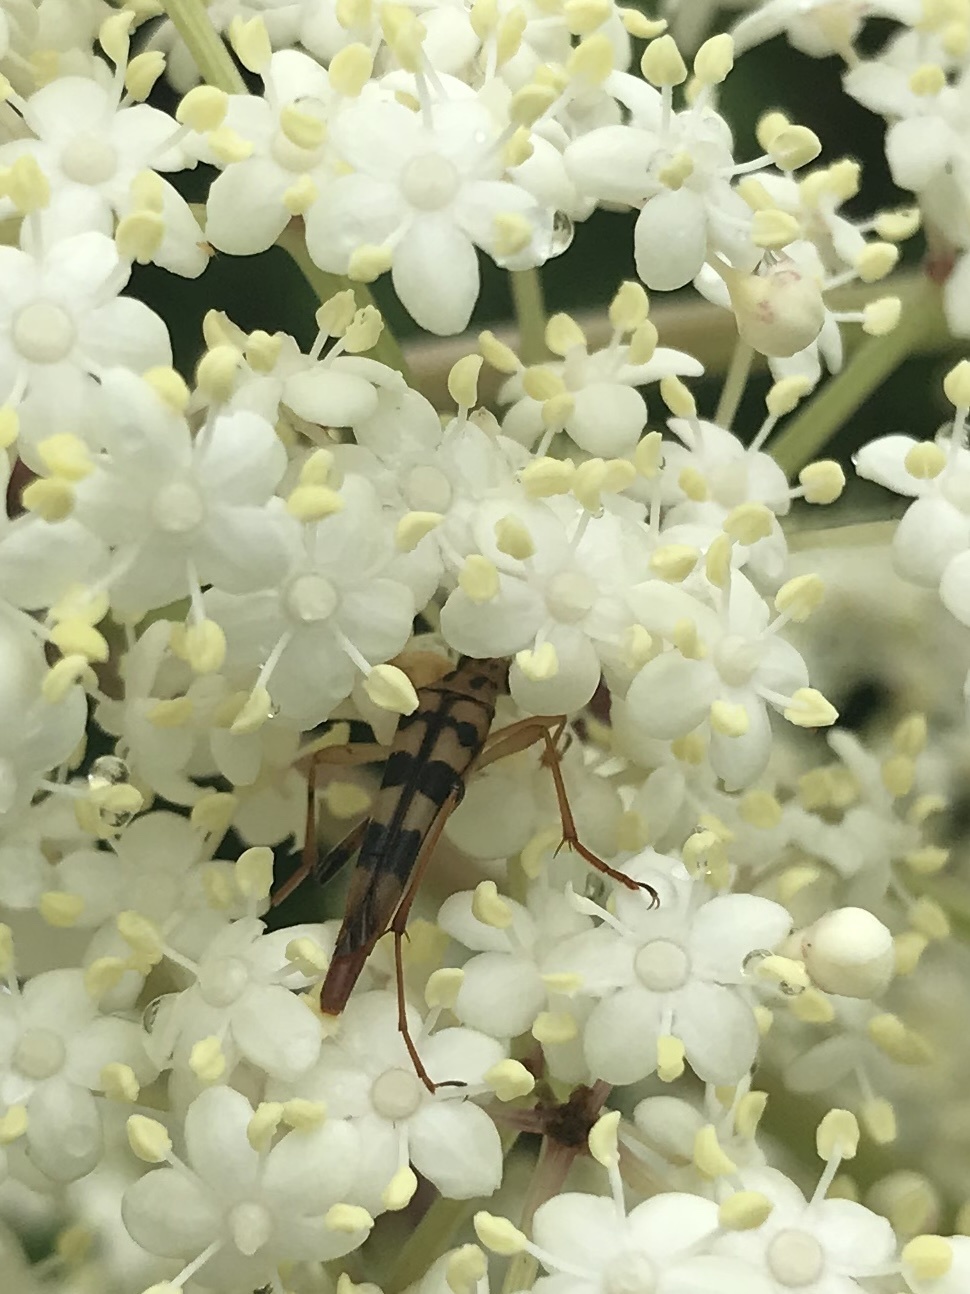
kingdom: Animalia
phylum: Arthropoda
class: Insecta
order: Coleoptera
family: Cerambycidae
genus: Strangalia
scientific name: Strangalia luteicornis
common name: Yellow-horned flower longhorn beetle
